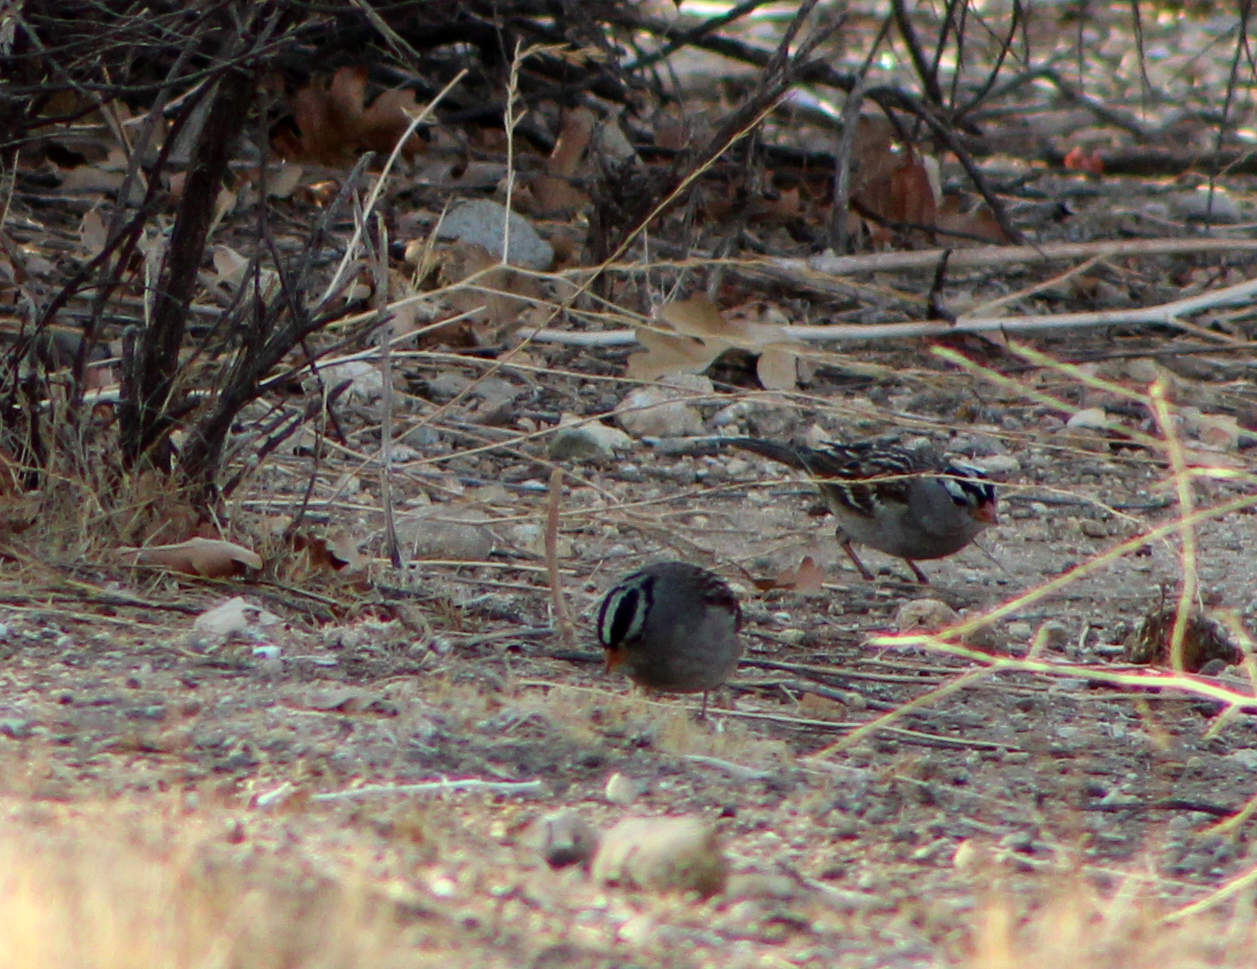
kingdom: Animalia
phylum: Chordata
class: Aves
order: Passeriformes
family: Passerellidae
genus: Zonotrichia
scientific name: Zonotrichia leucophrys
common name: White-crowned sparrow
